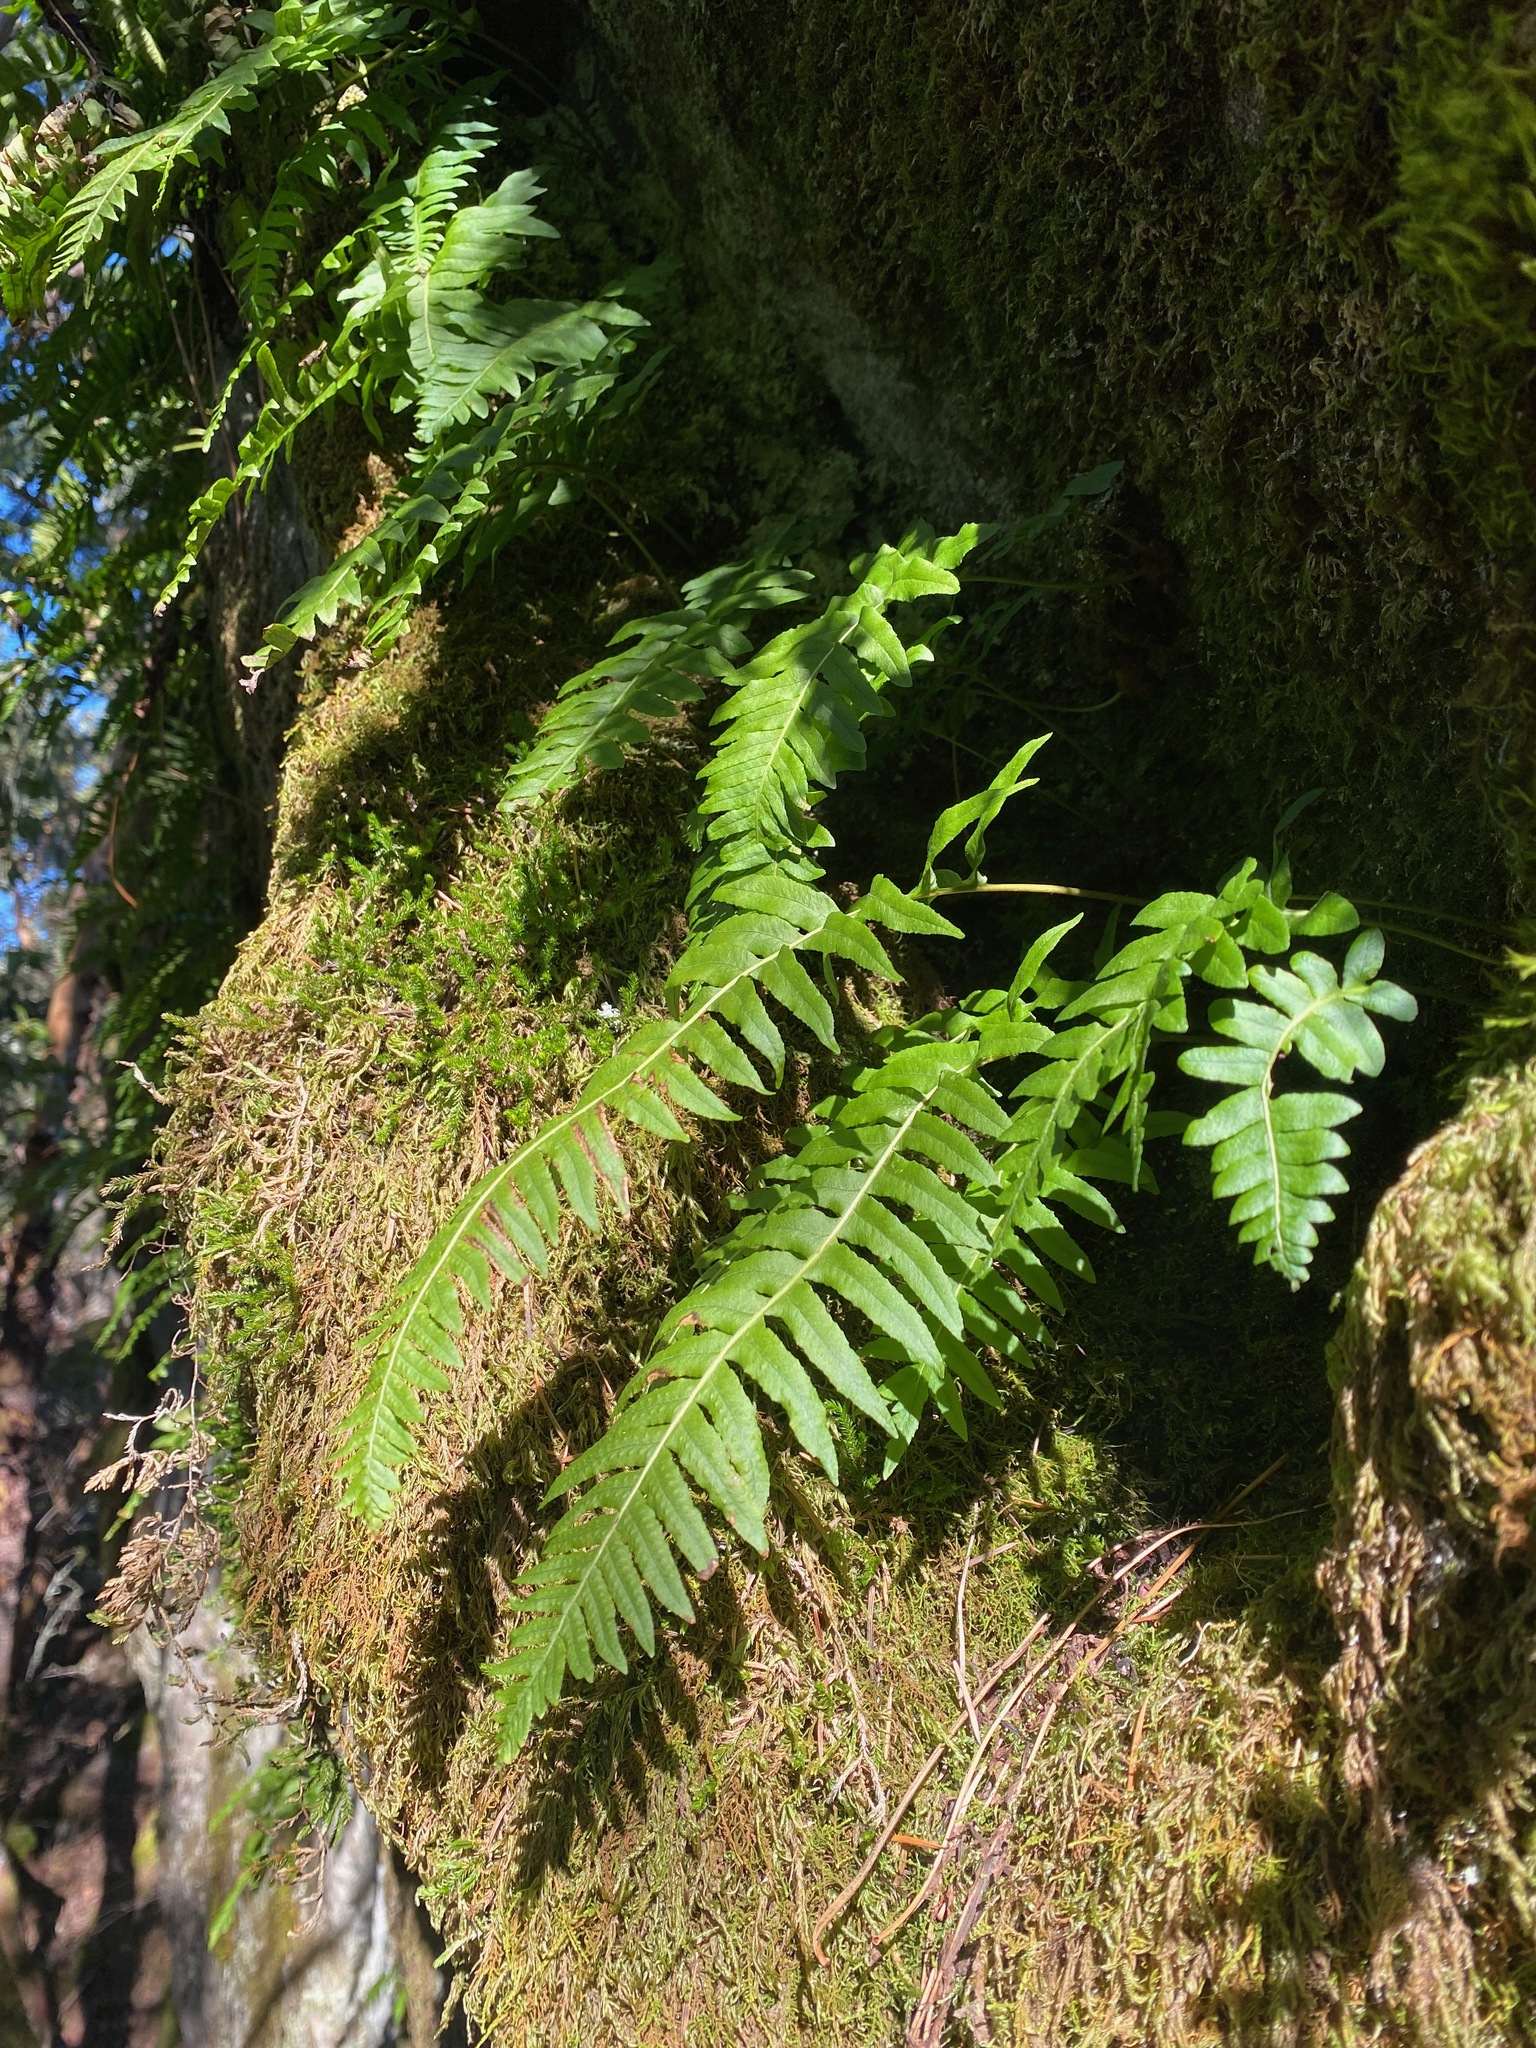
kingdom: Plantae
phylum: Tracheophyta
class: Polypodiopsida
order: Polypodiales
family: Polypodiaceae
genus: Polypodium
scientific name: Polypodium glycyrrhiza
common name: Licorice fern
